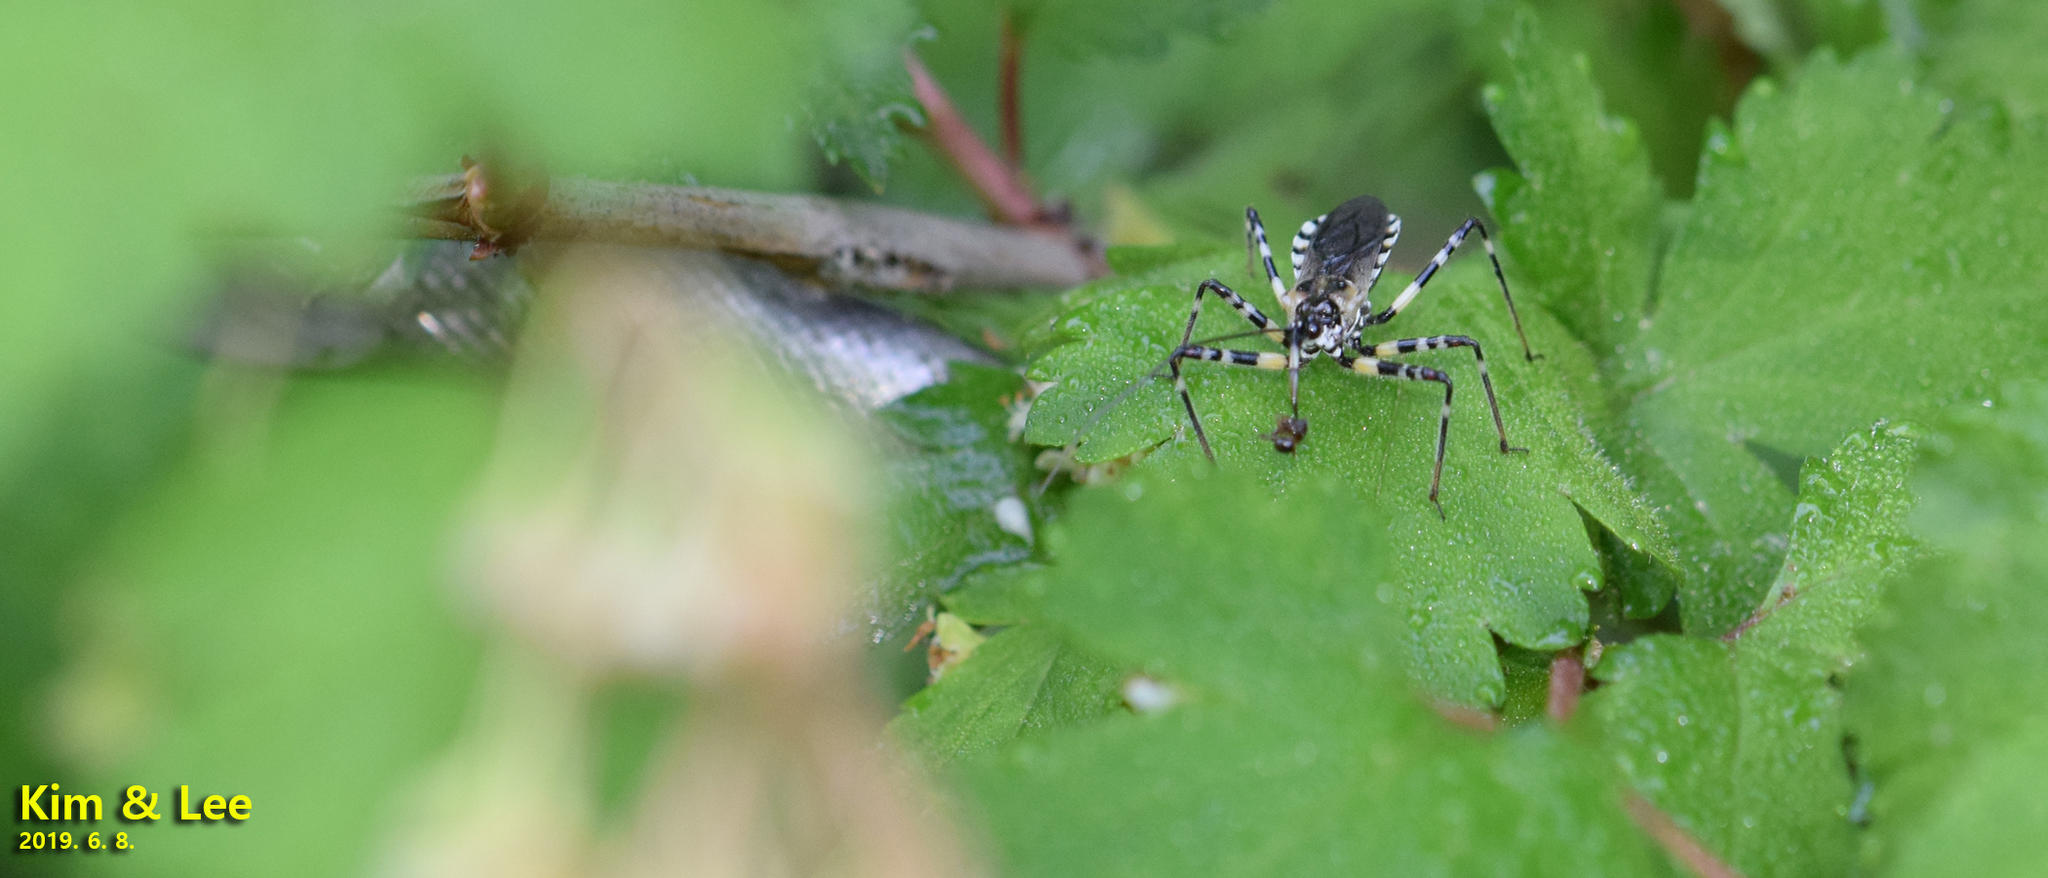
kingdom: Animalia
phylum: Arthropoda
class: Insecta
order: Hemiptera
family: Reduviidae
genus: Sphedanolestes
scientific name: Sphedanolestes impressicollis
